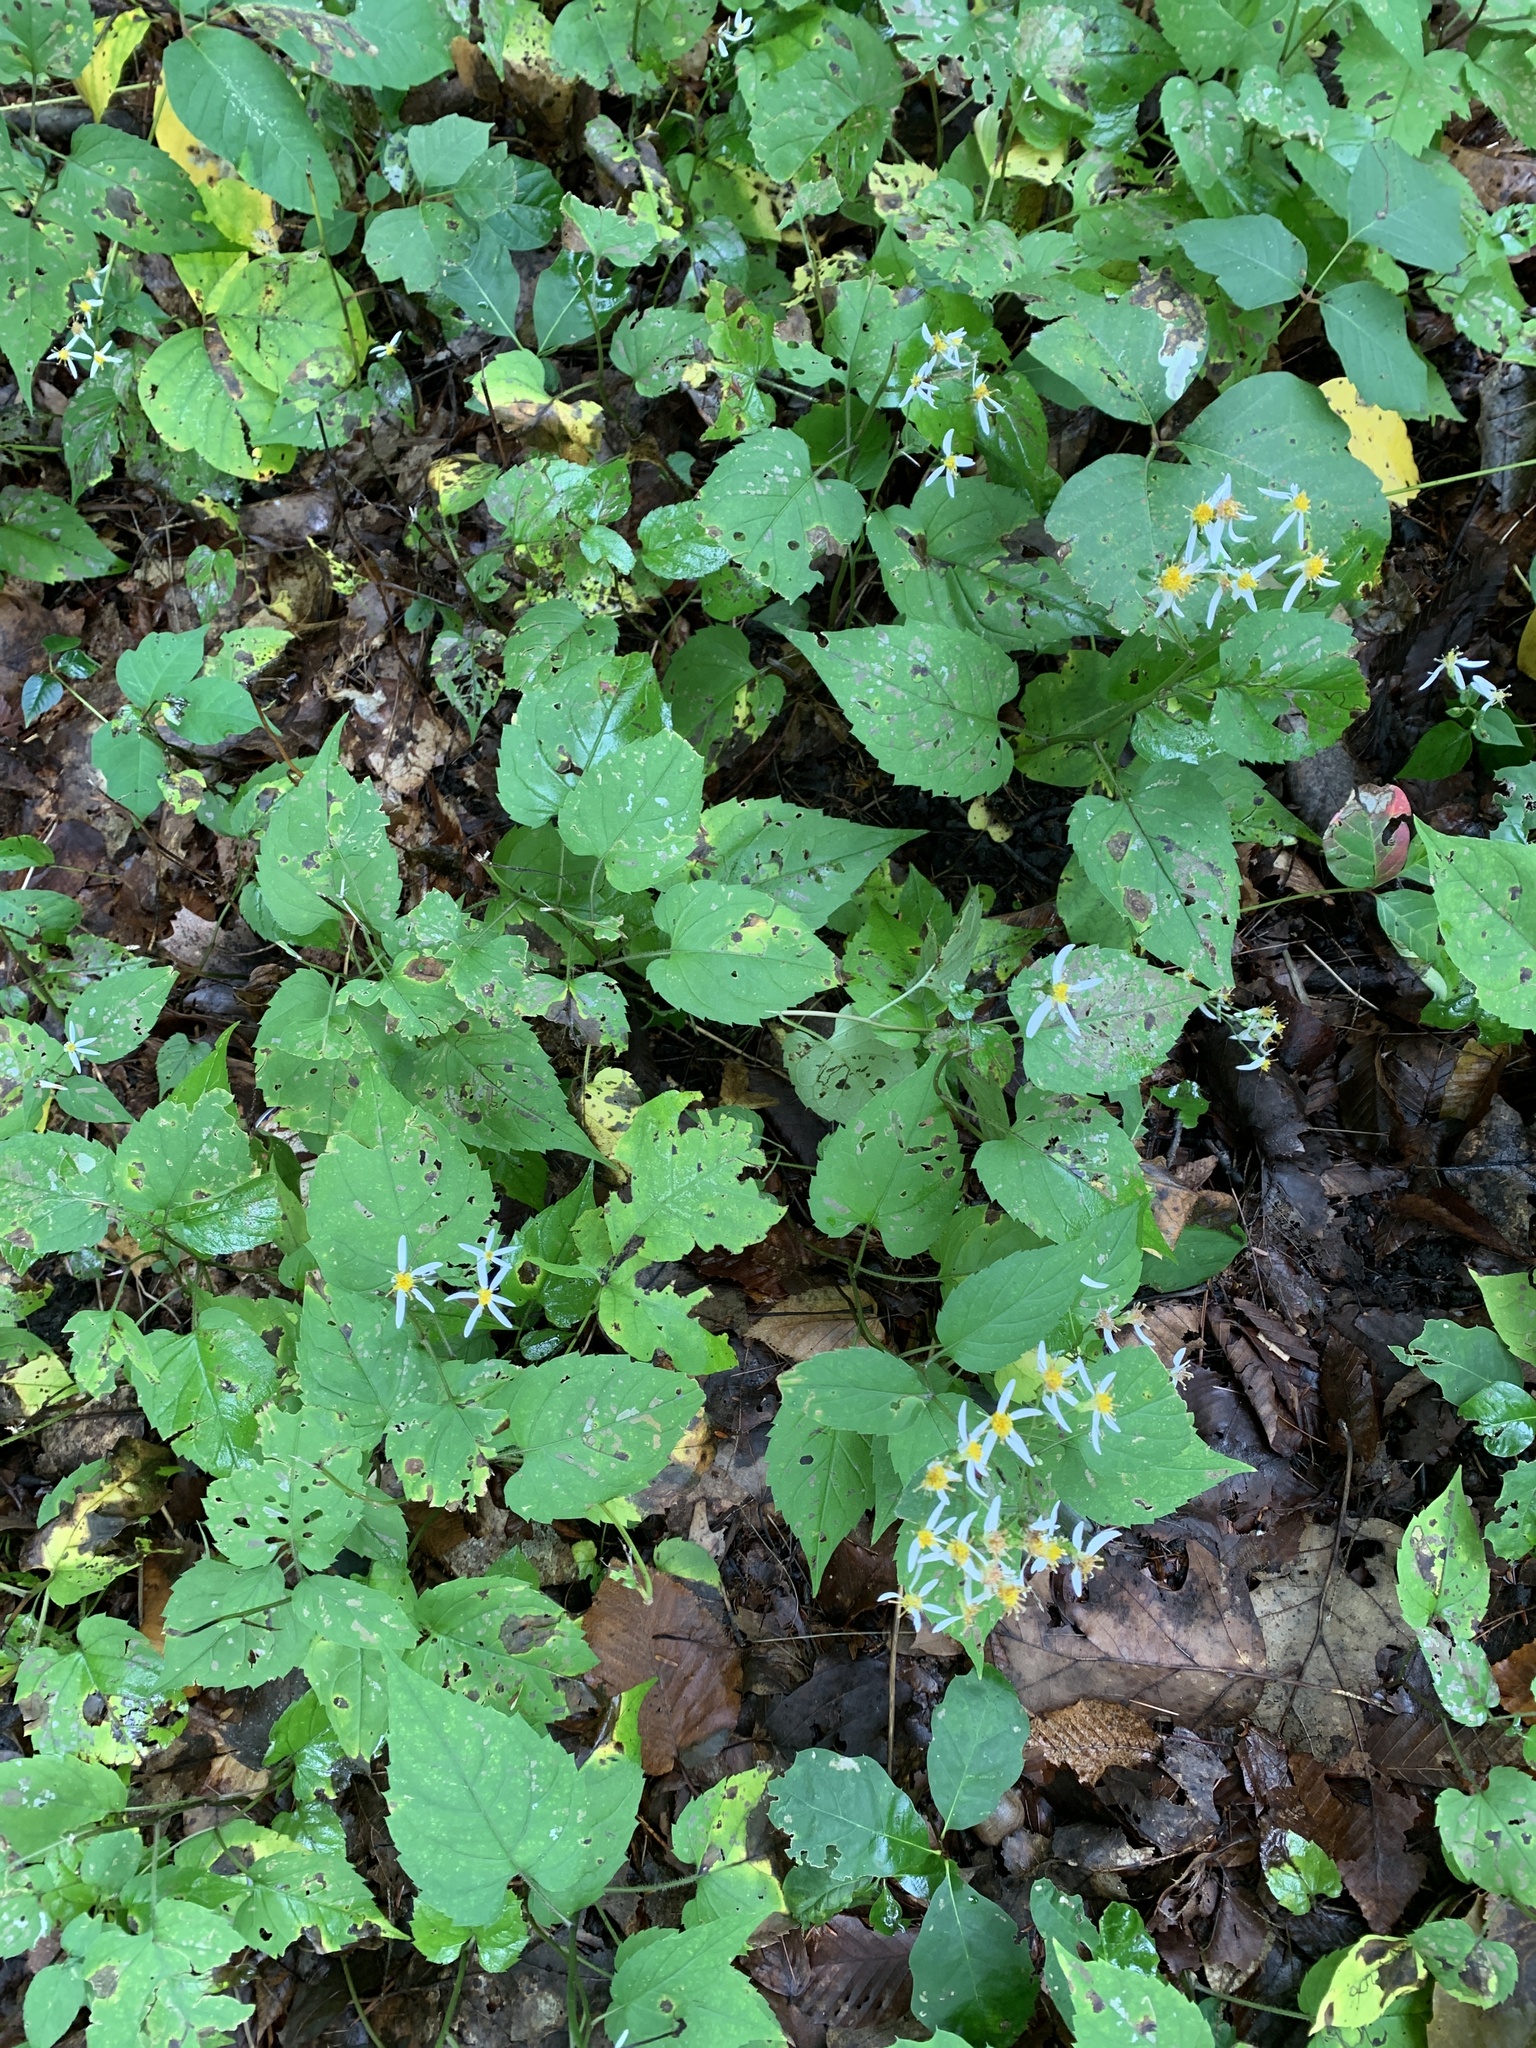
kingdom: Plantae
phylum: Tracheophyta
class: Magnoliopsida
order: Asterales
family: Asteraceae
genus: Eurybia
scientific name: Eurybia divaricata
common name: White wood aster
